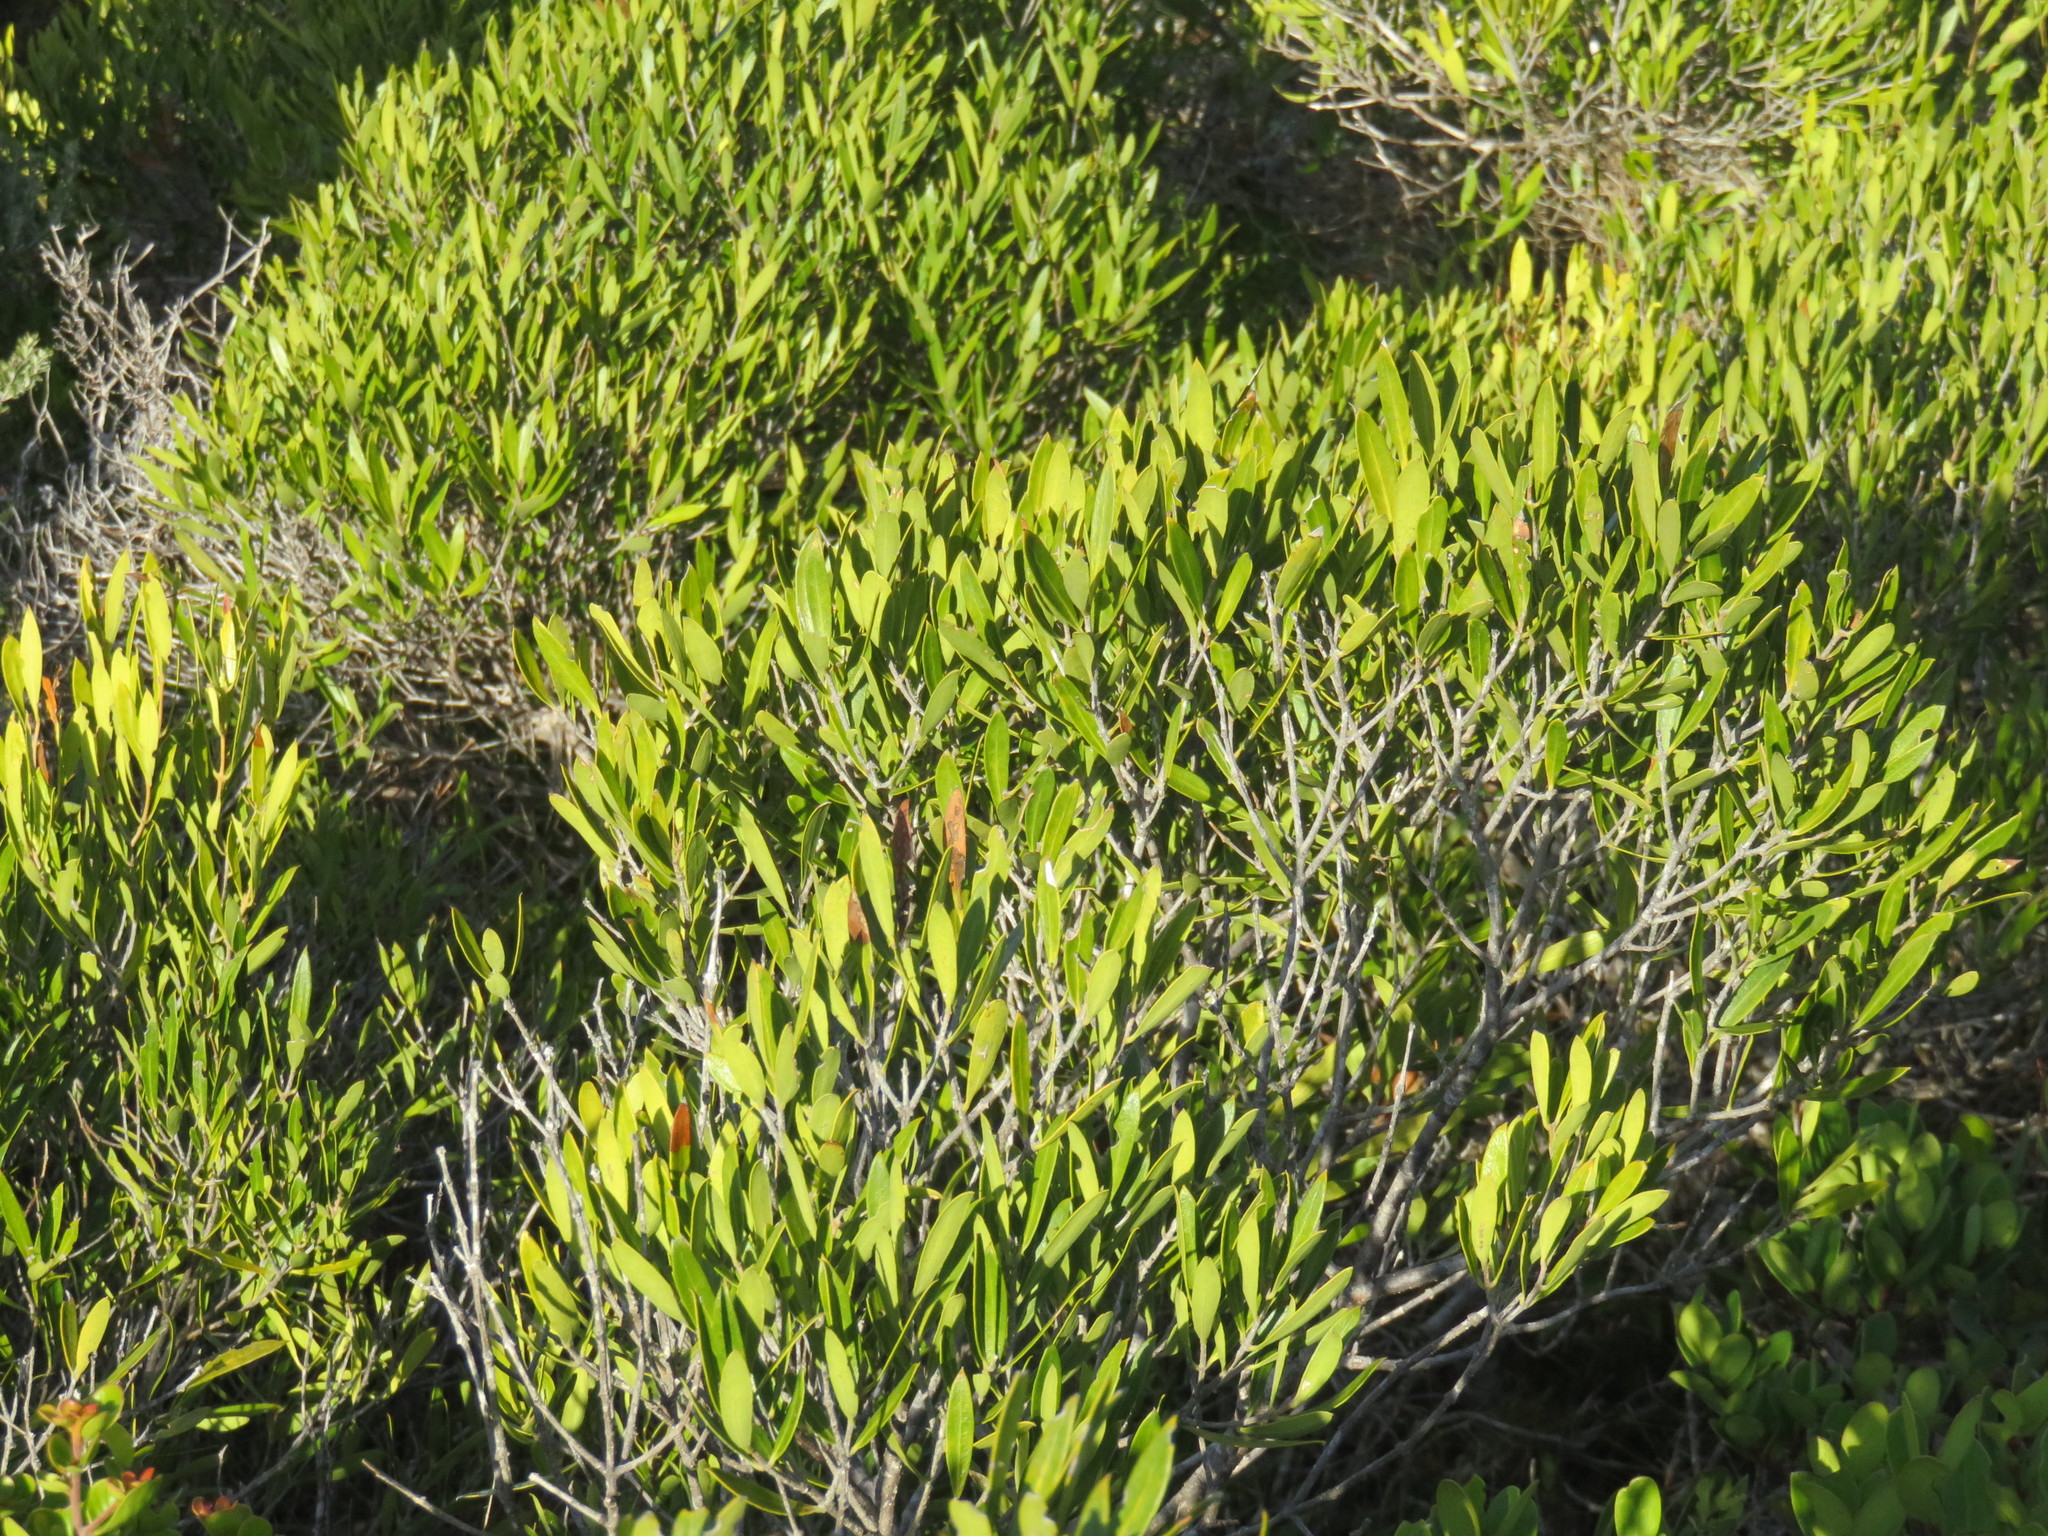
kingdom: Plantae
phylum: Tracheophyta
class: Magnoliopsida
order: Lamiales
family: Oleaceae
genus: Olea
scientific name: Olea exasperata
